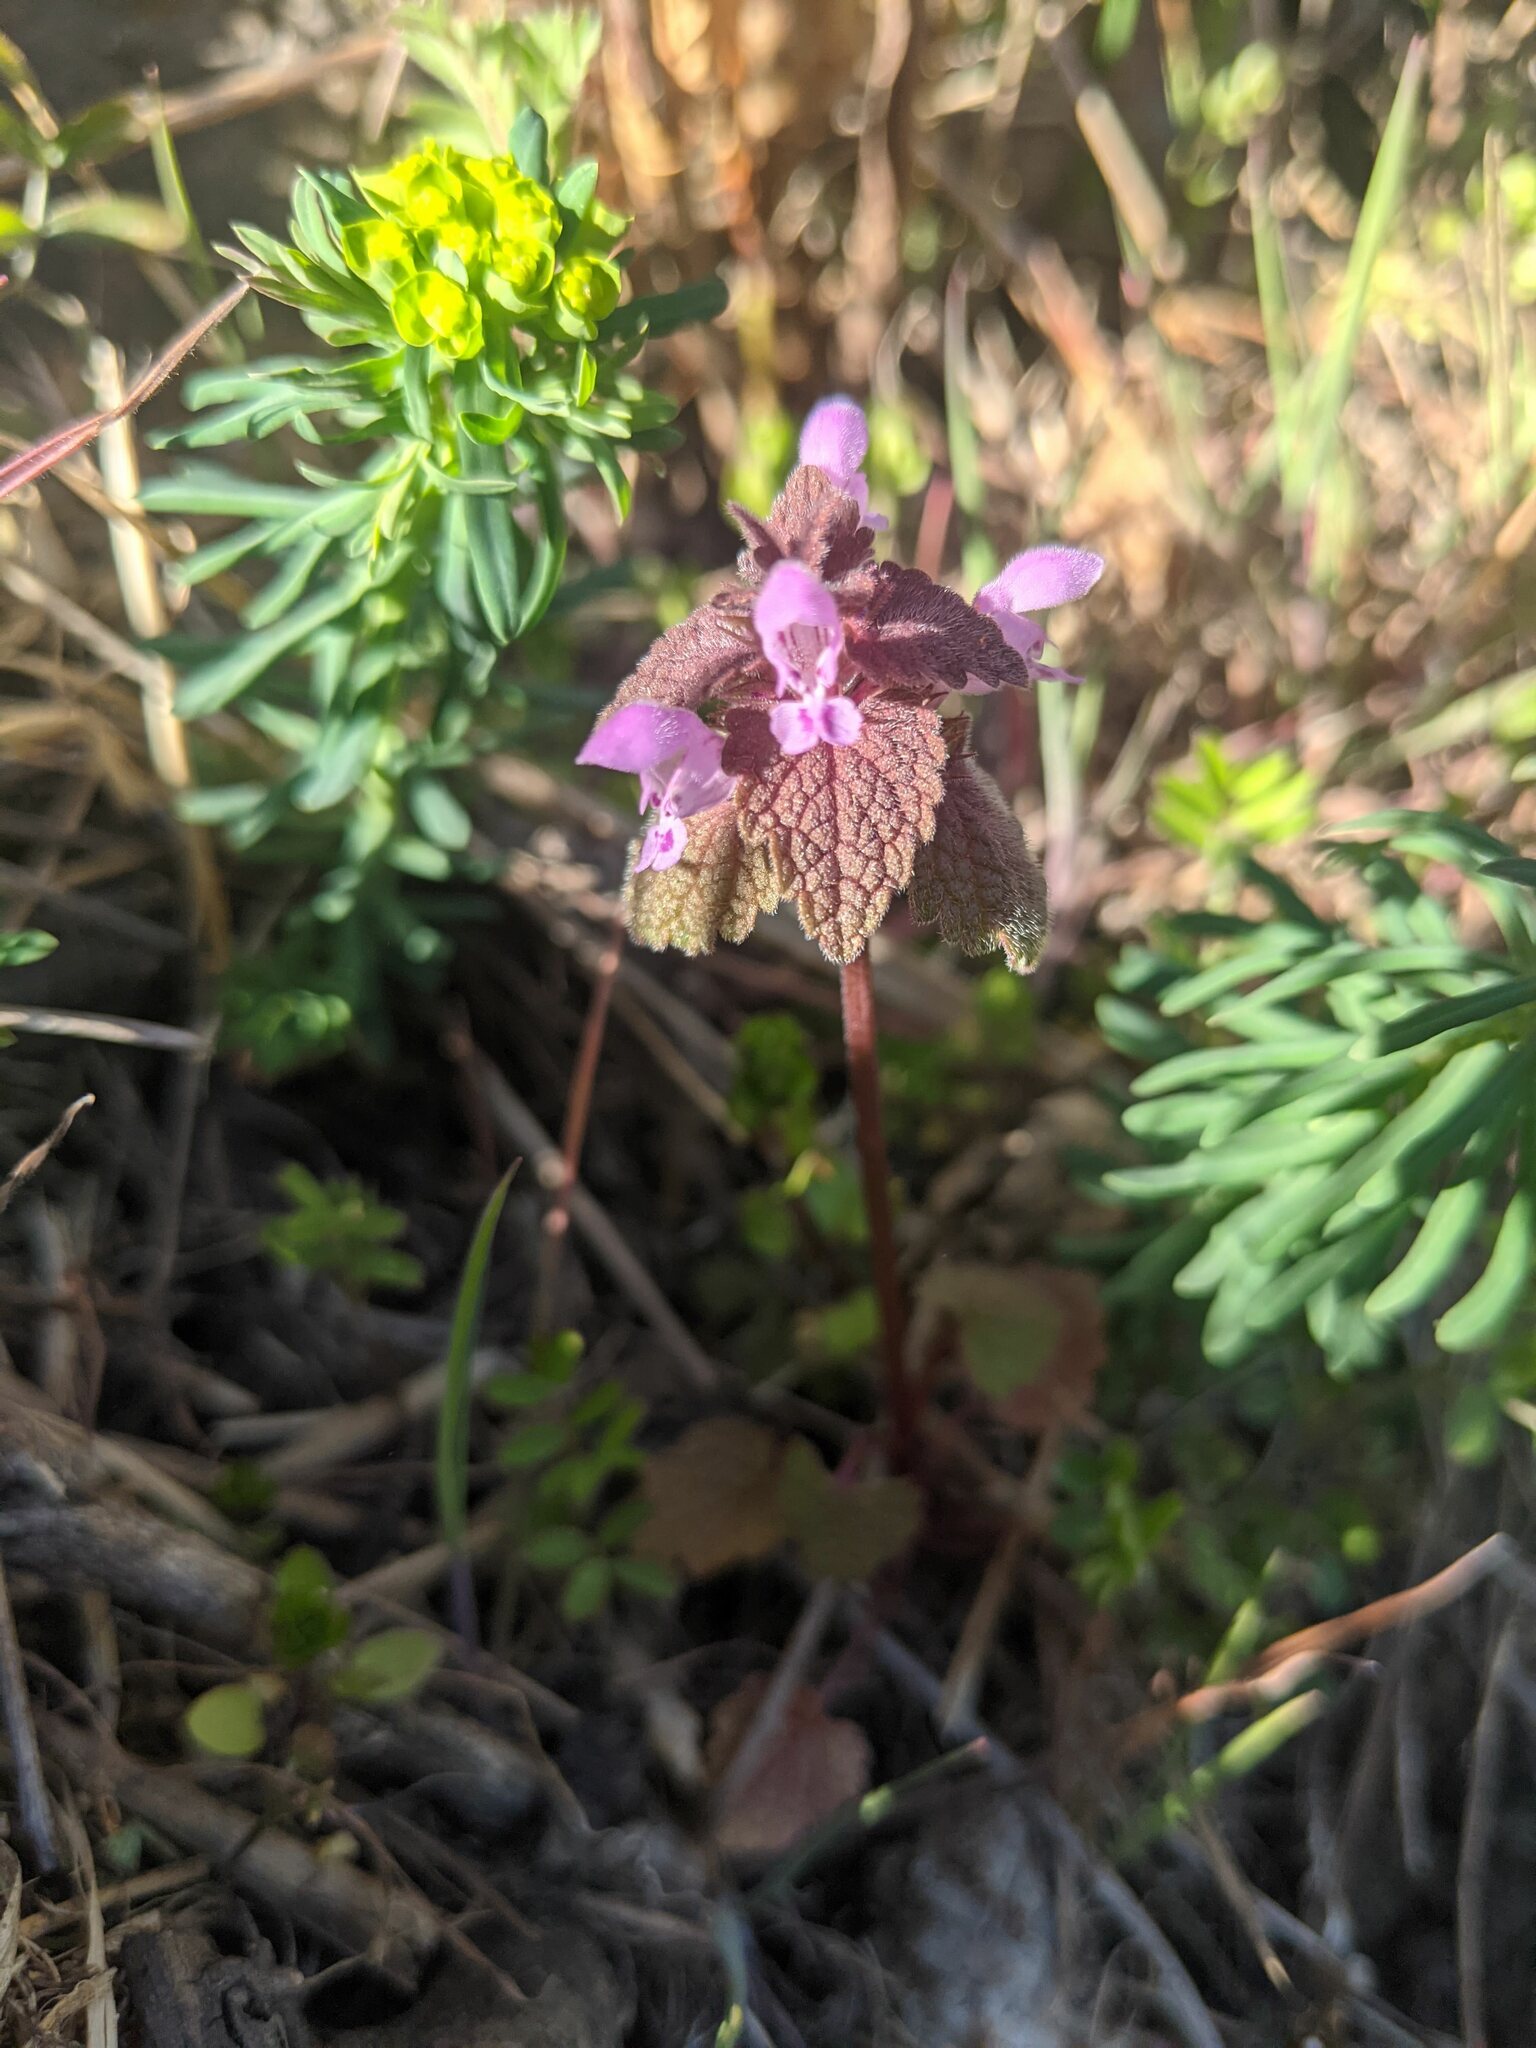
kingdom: Plantae
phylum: Tracheophyta
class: Magnoliopsida
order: Lamiales
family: Lamiaceae
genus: Lamium
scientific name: Lamium purpureum
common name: Red dead-nettle
